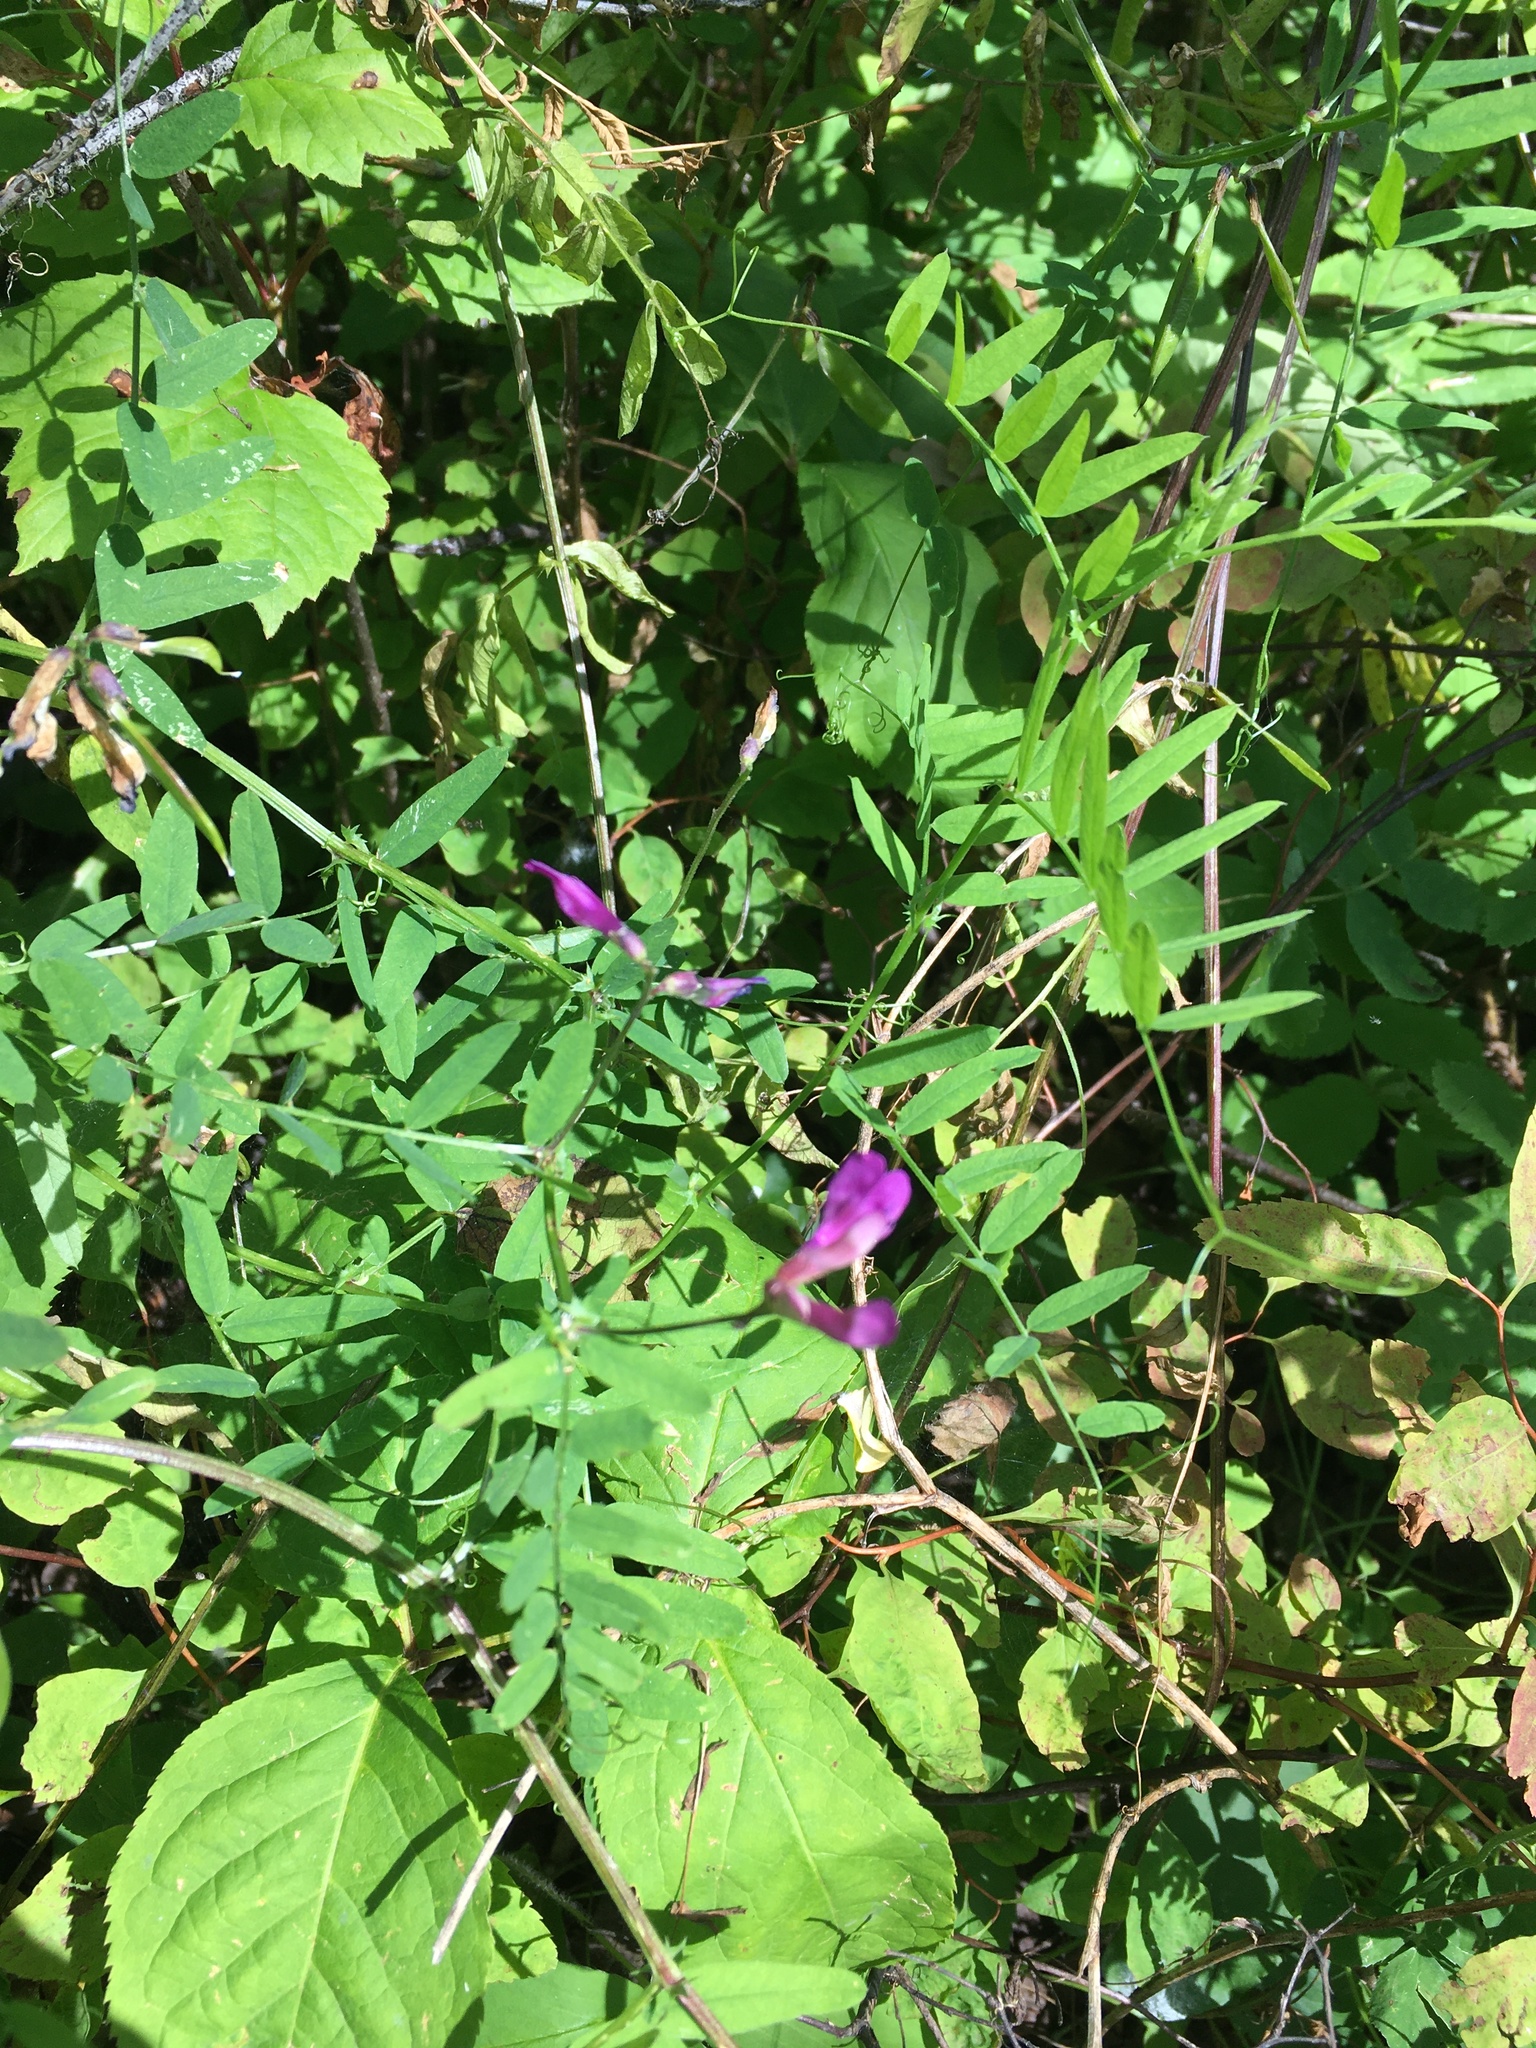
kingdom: Plantae
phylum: Tracheophyta
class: Magnoliopsida
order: Fabales
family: Fabaceae
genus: Vicia
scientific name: Vicia americana
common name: American vetch
